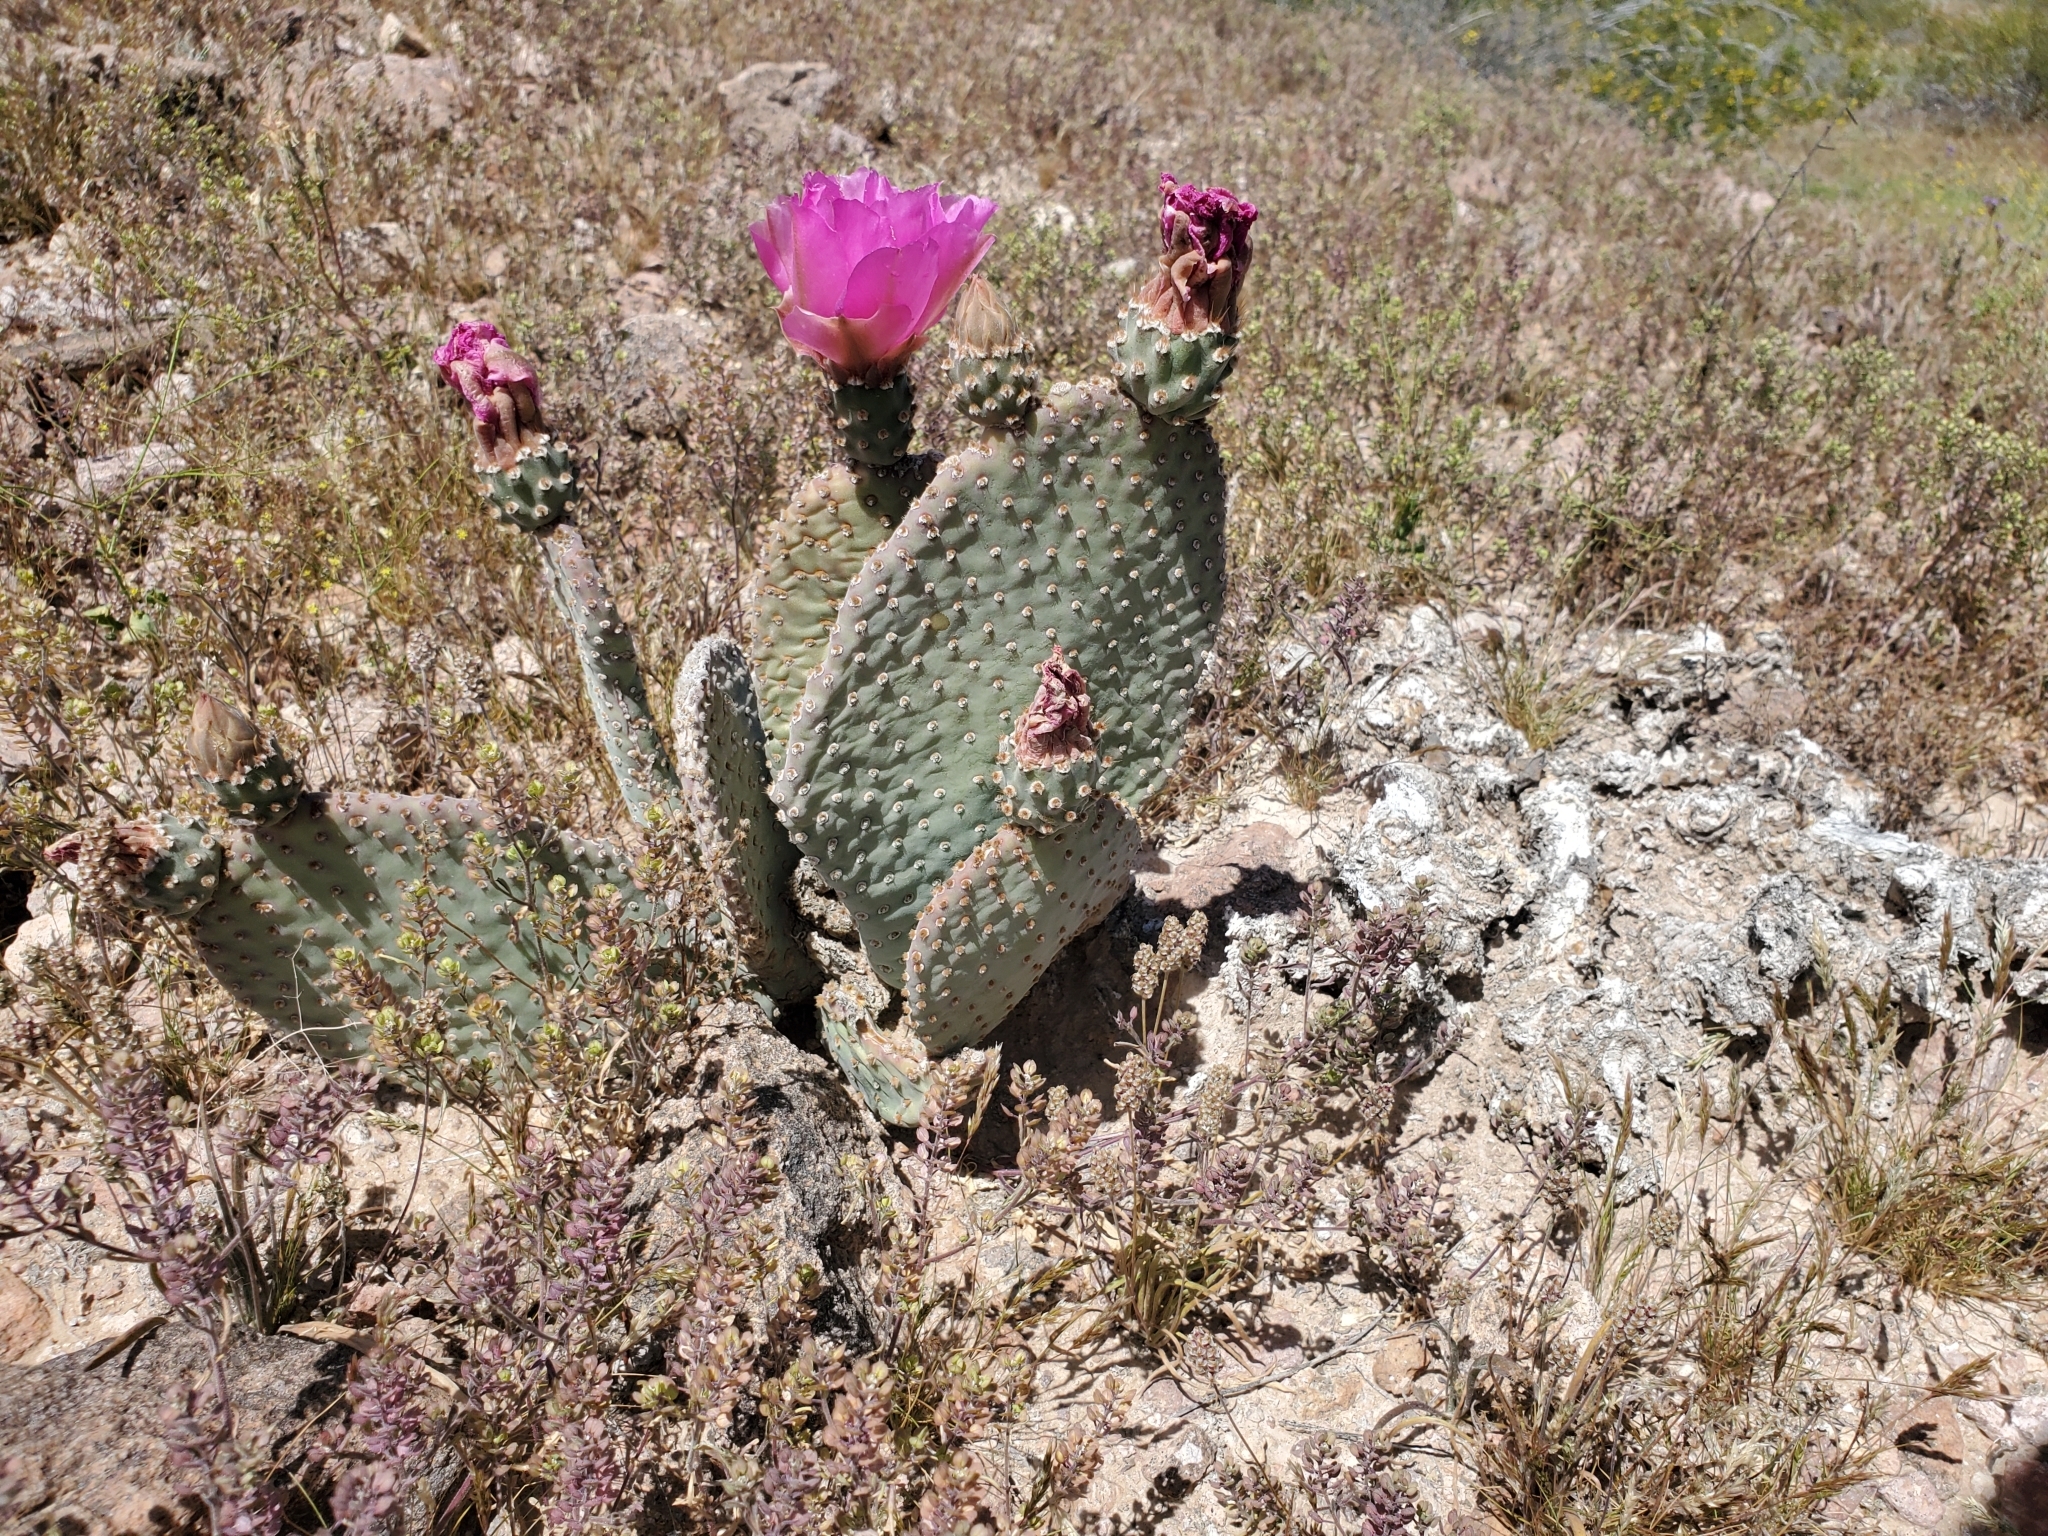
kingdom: Plantae
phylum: Tracheophyta
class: Magnoliopsida
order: Caryophyllales
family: Cactaceae
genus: Opuntia
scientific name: Opuntia basilaris
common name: Beavertail prickly-pear
